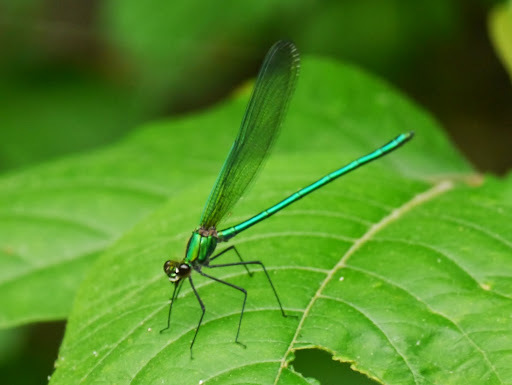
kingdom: Animalia
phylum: Arthropoda
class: Insecta
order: Odonata
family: Calopterygidae
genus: Calopteryx
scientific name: Calopteryx angustipennis
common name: Appalachian jewelwing
